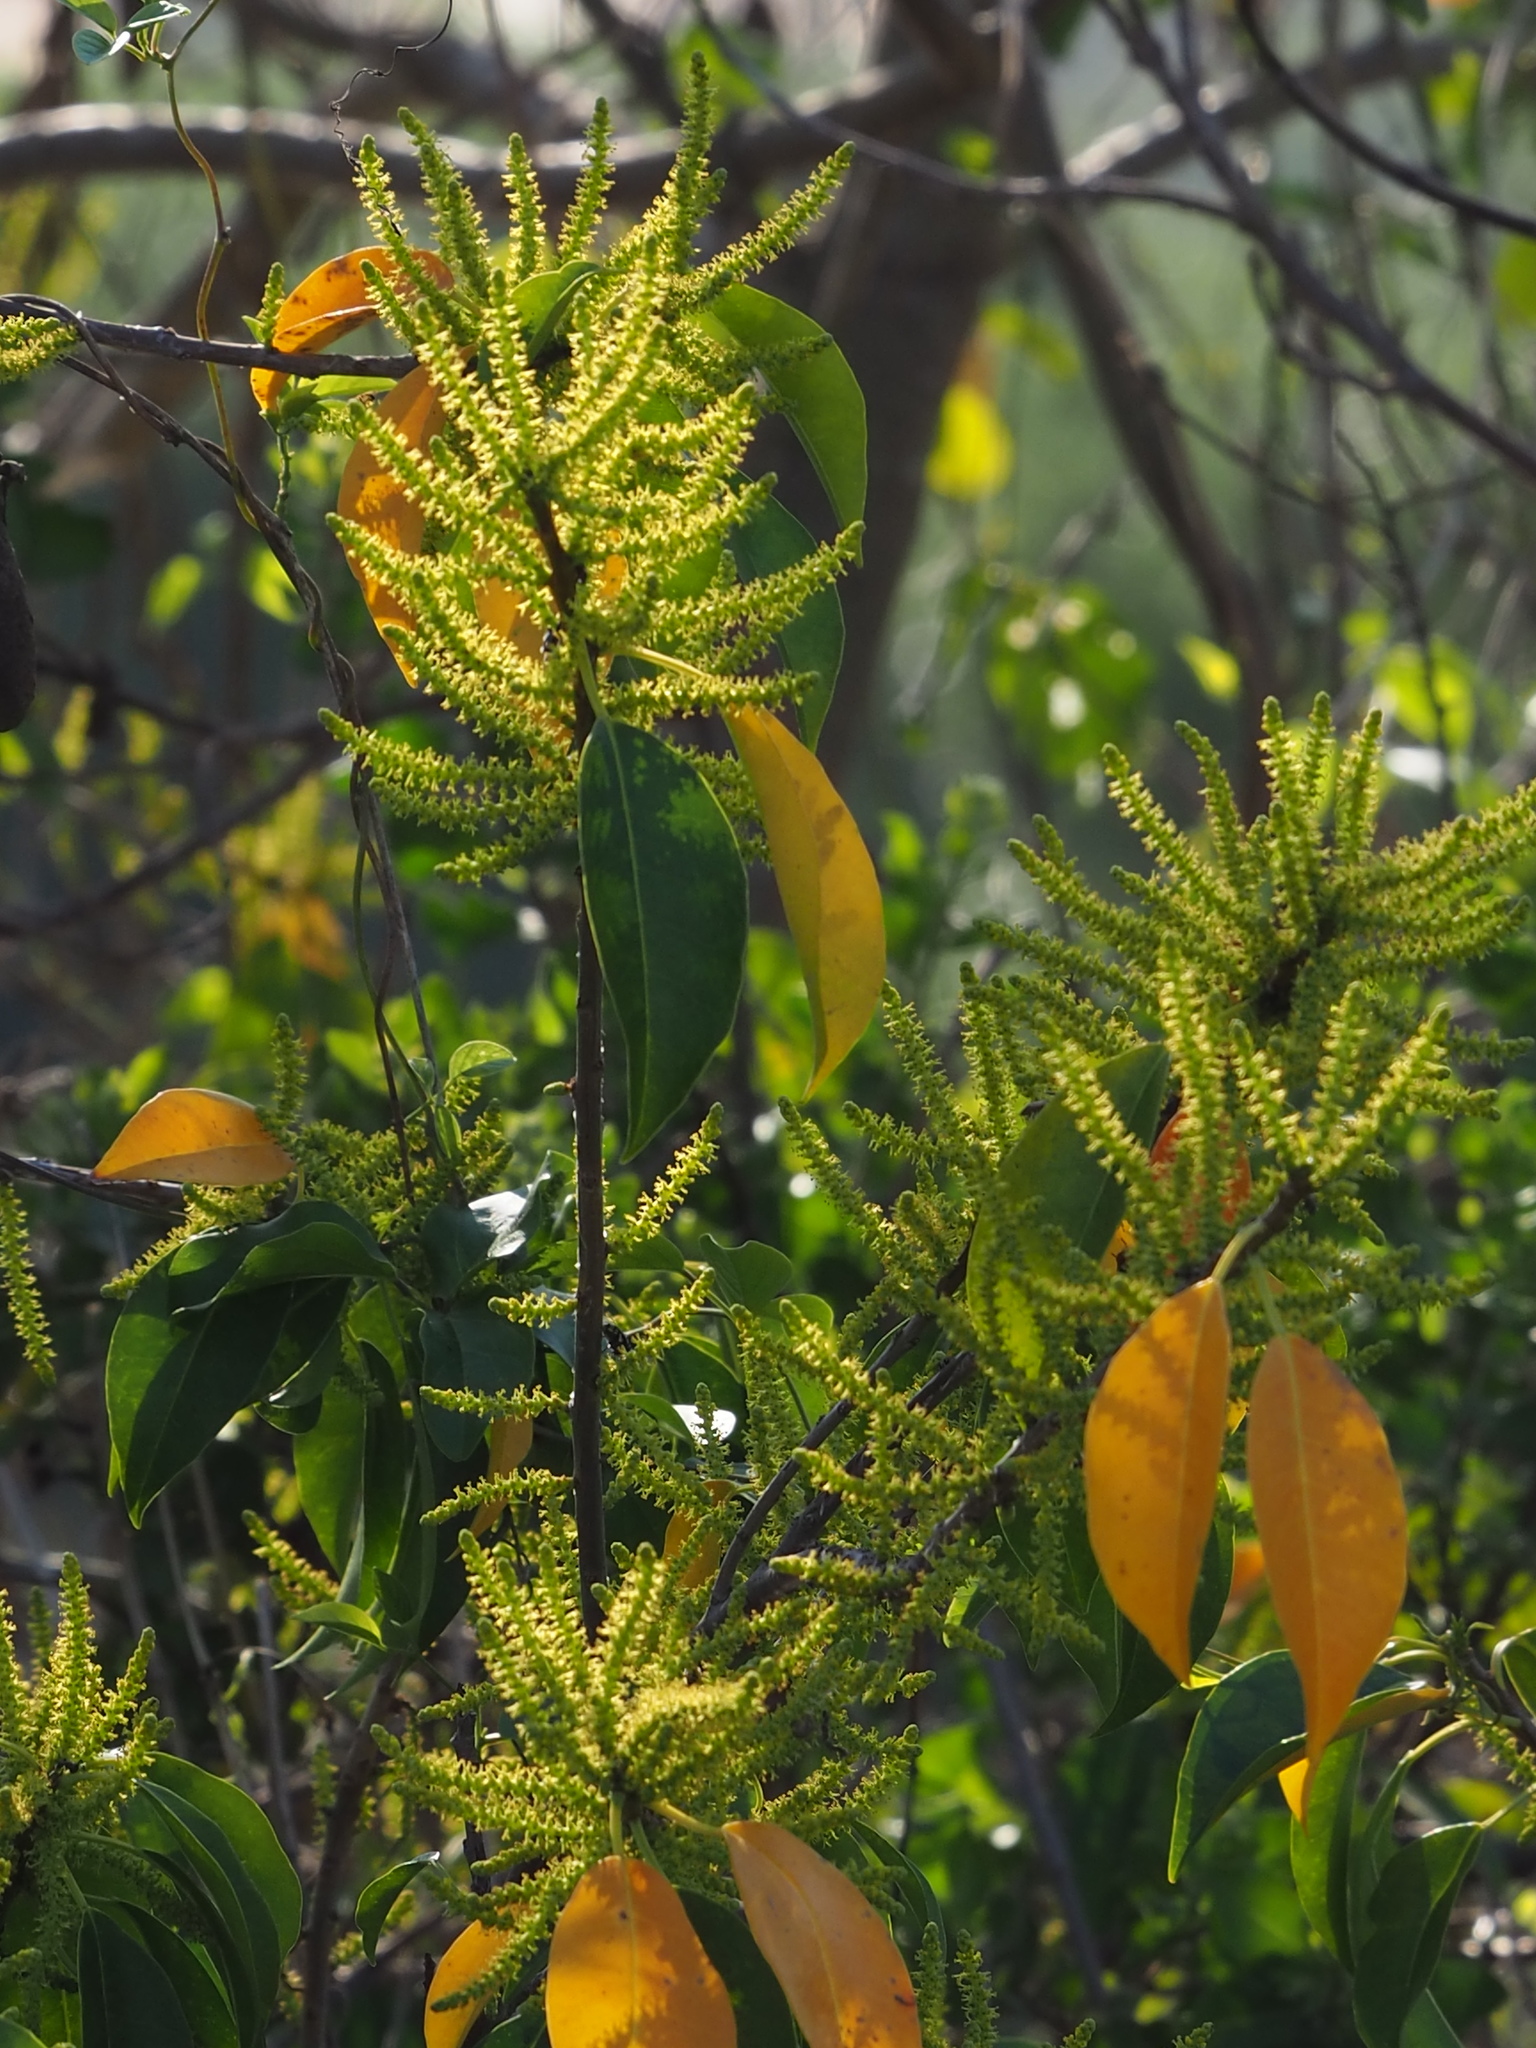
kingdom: Plantae
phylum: Tracheophyta
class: Magnoliopsida
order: Malpighiales
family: Euphorbiaceae
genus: Excoecaria
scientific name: Excoecaria agallocha
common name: River poisontree
